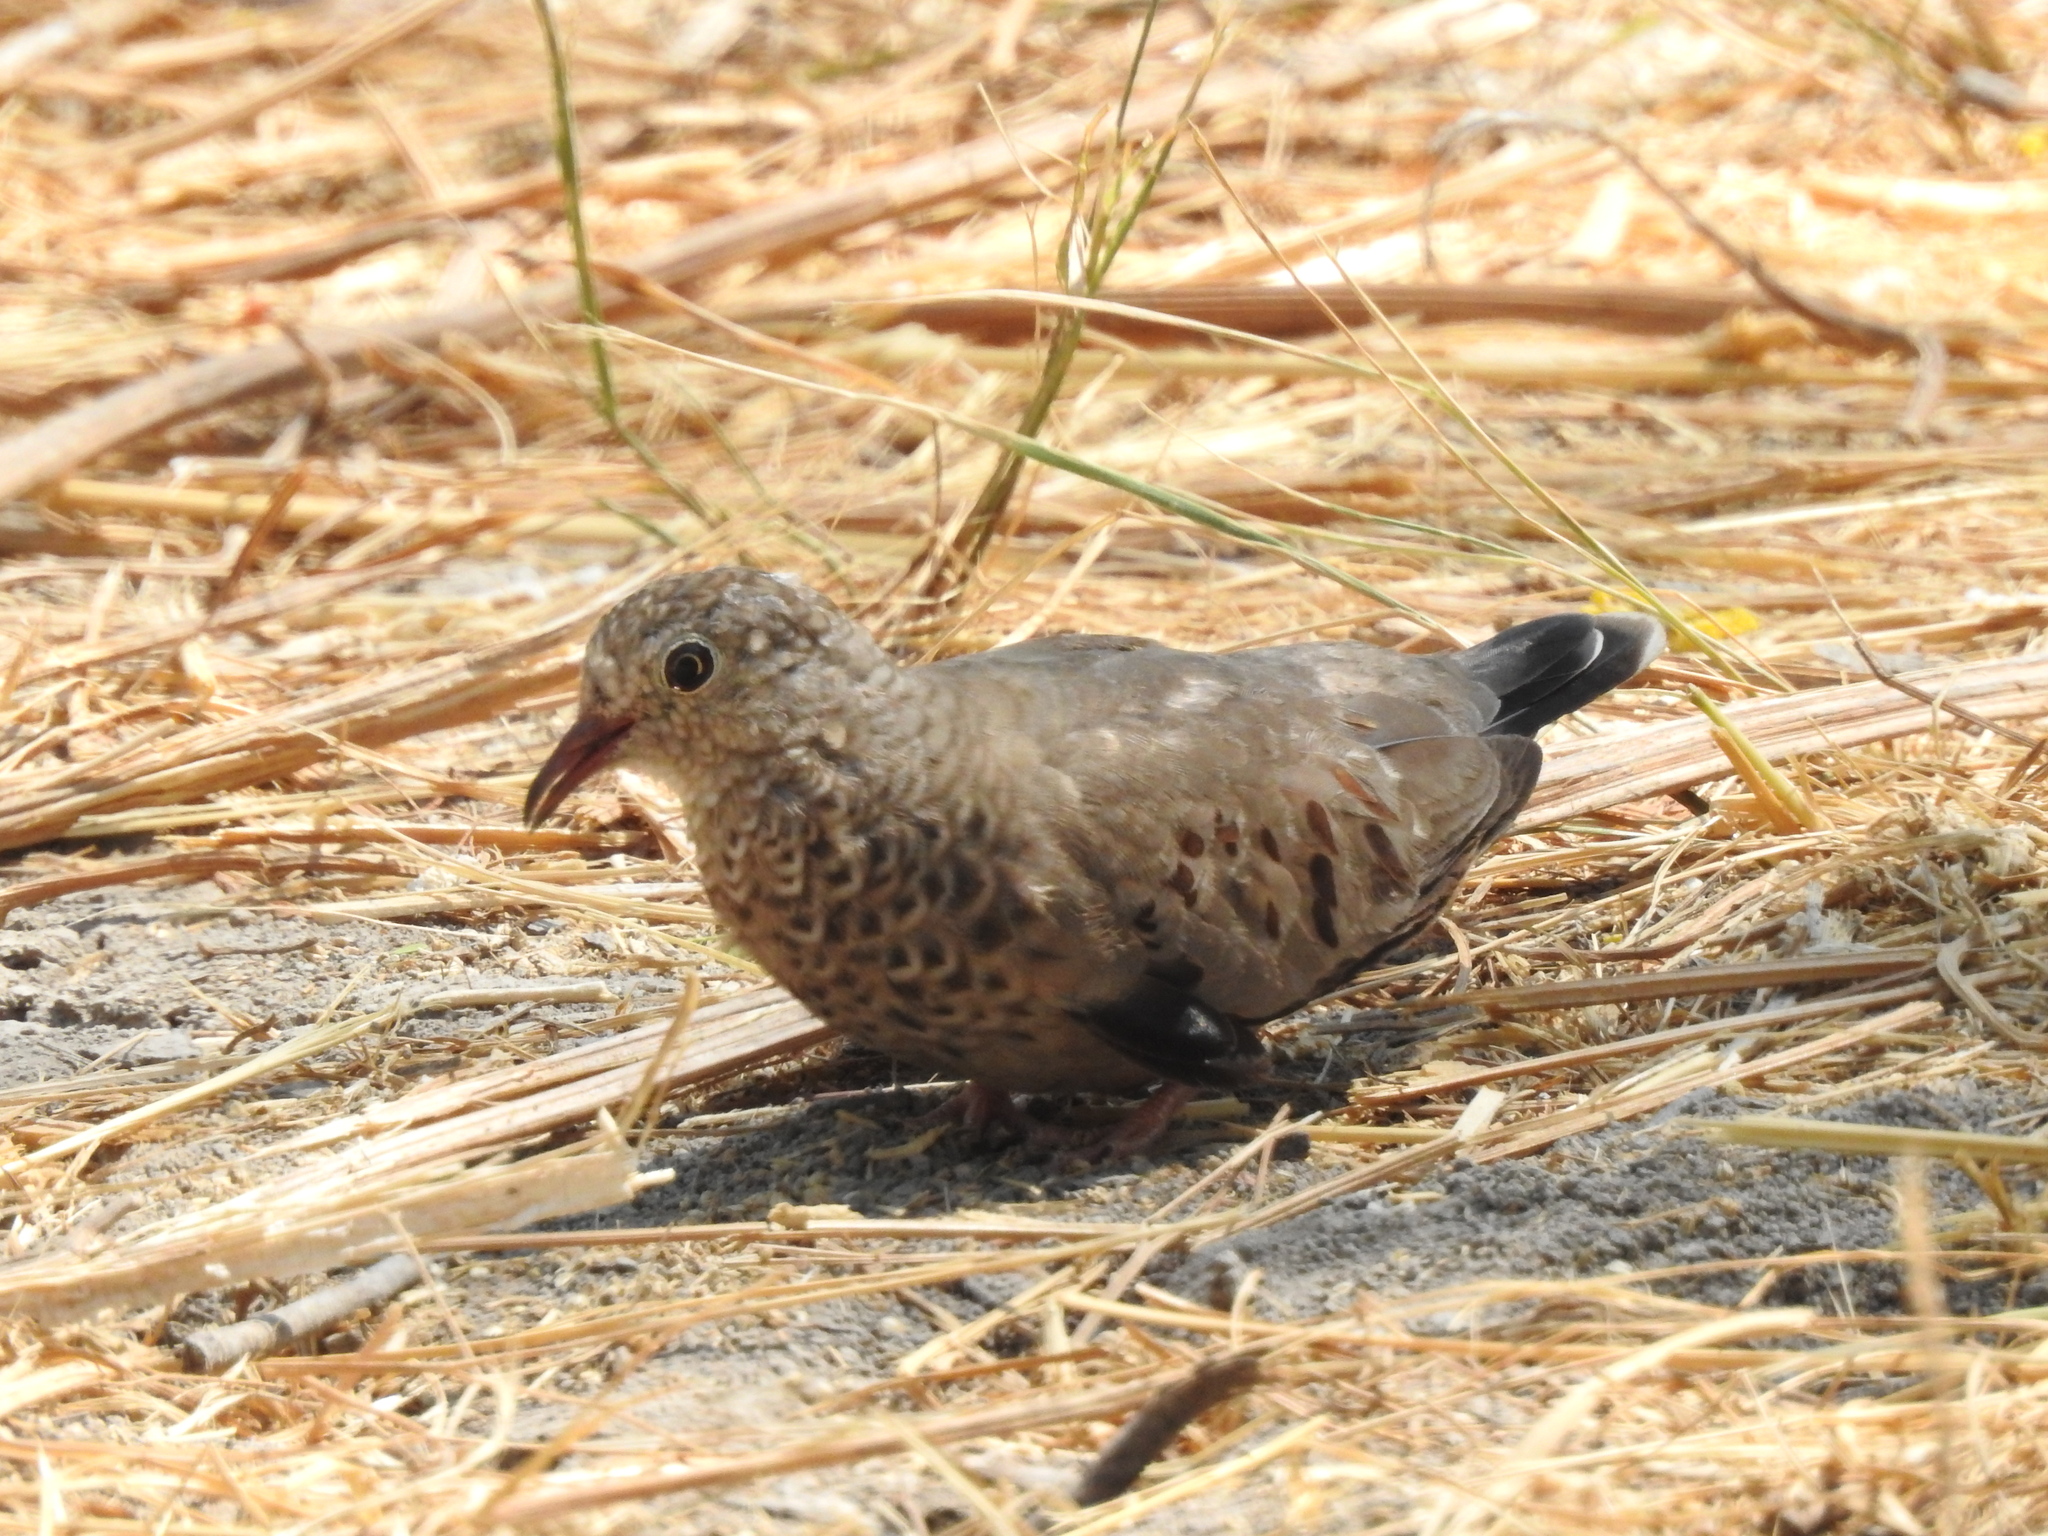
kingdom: Animalia
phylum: Chordata
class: Aves
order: Columbiformes
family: Columbidae
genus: Columbina
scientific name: Columbina passerina
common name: Common ground-dove
